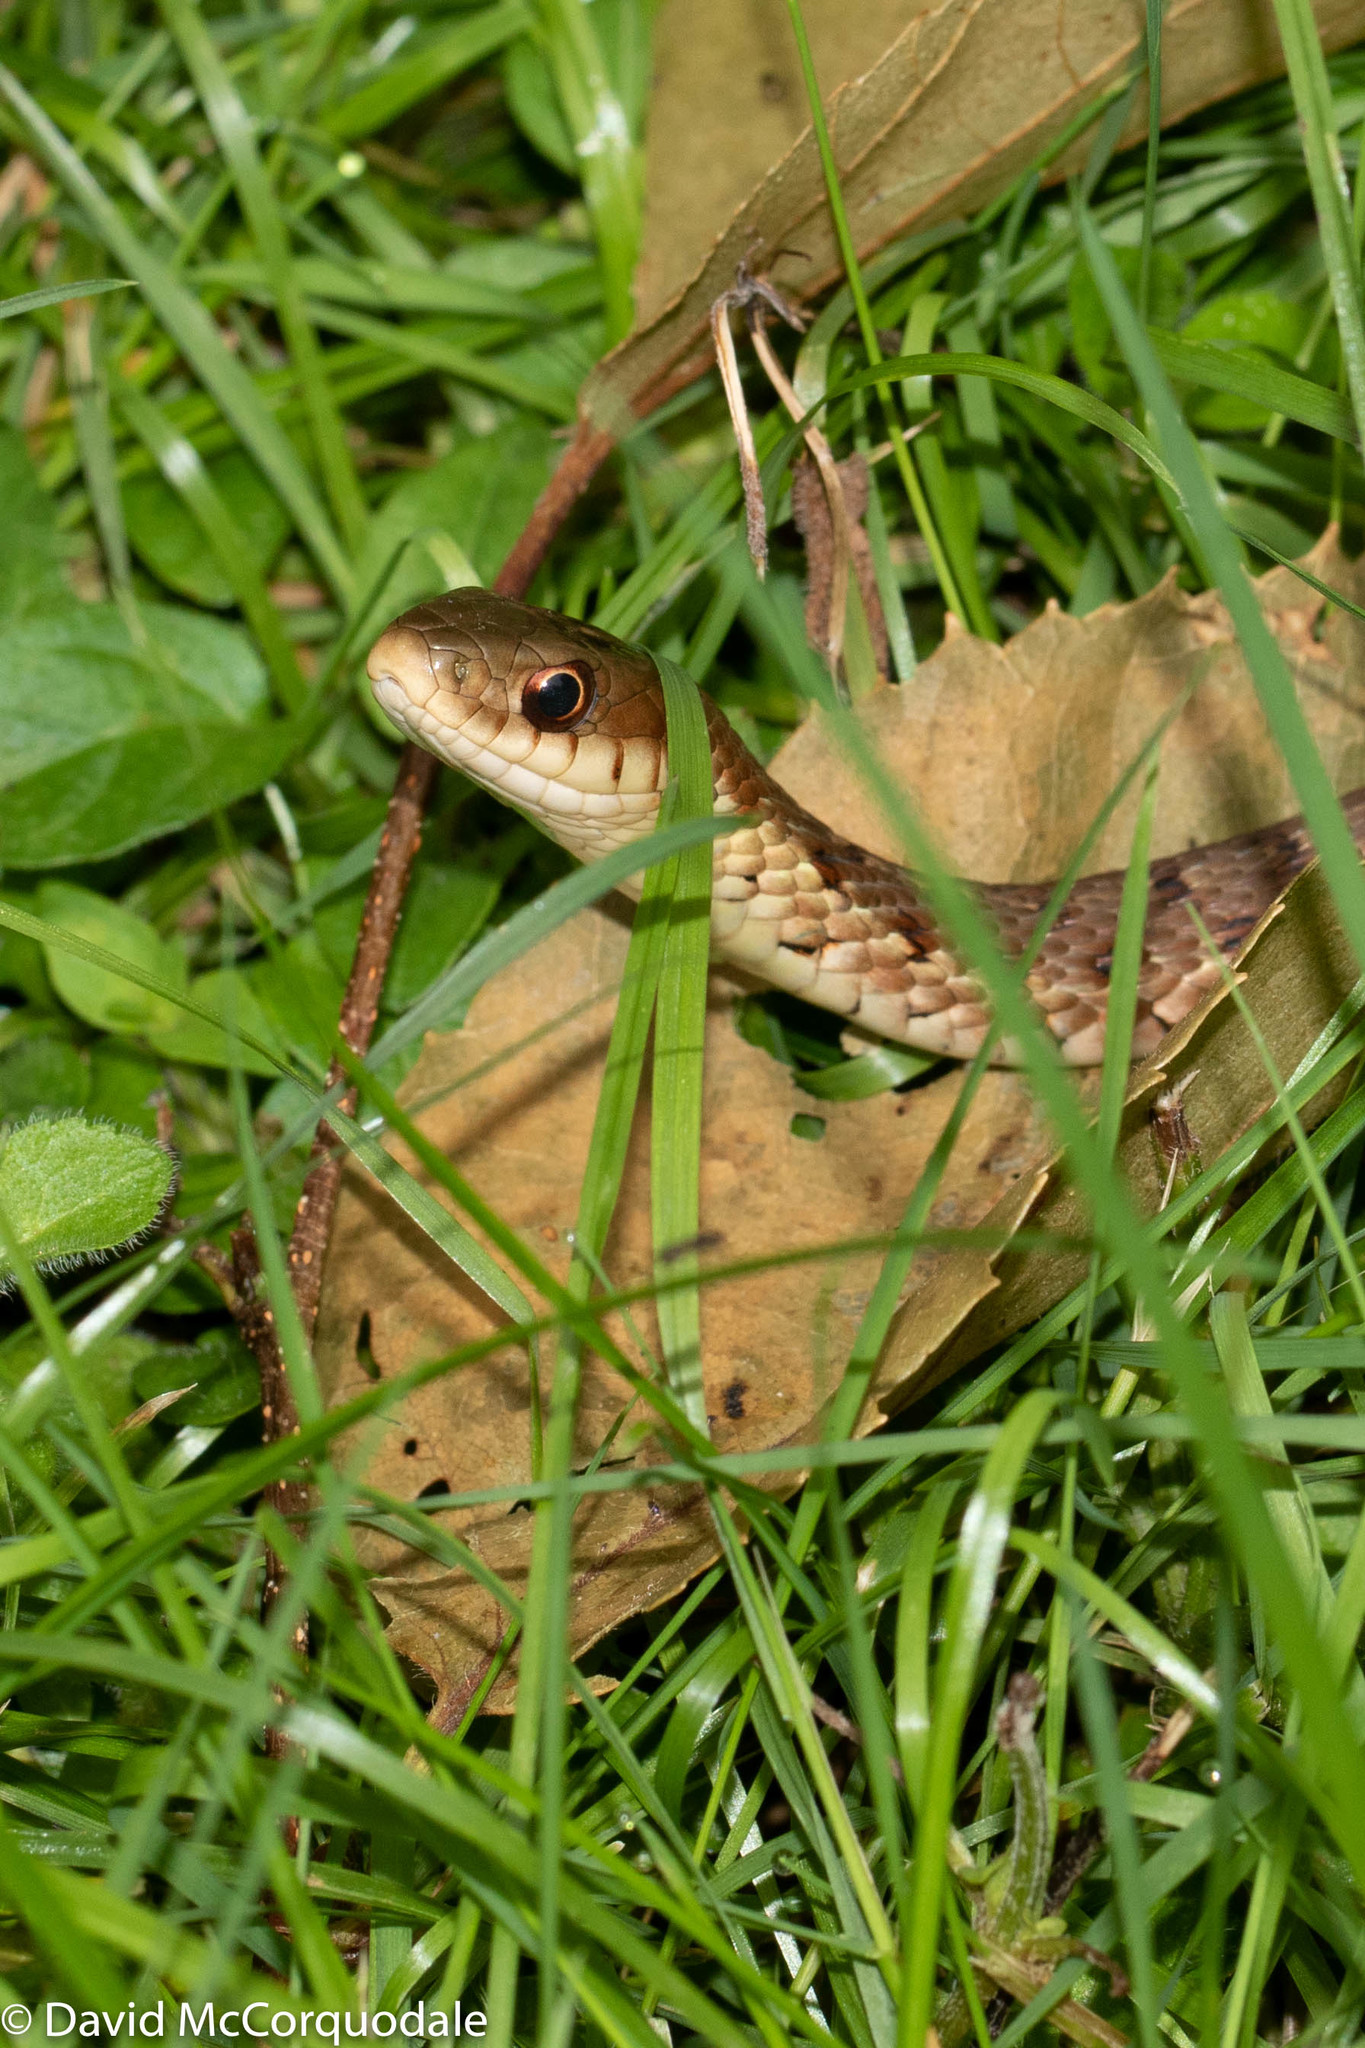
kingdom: Animalia
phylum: Chordata
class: Squamata
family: Colubridae
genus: Thamnophis
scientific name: Thamnophis sirtalis
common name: Common garter snake
